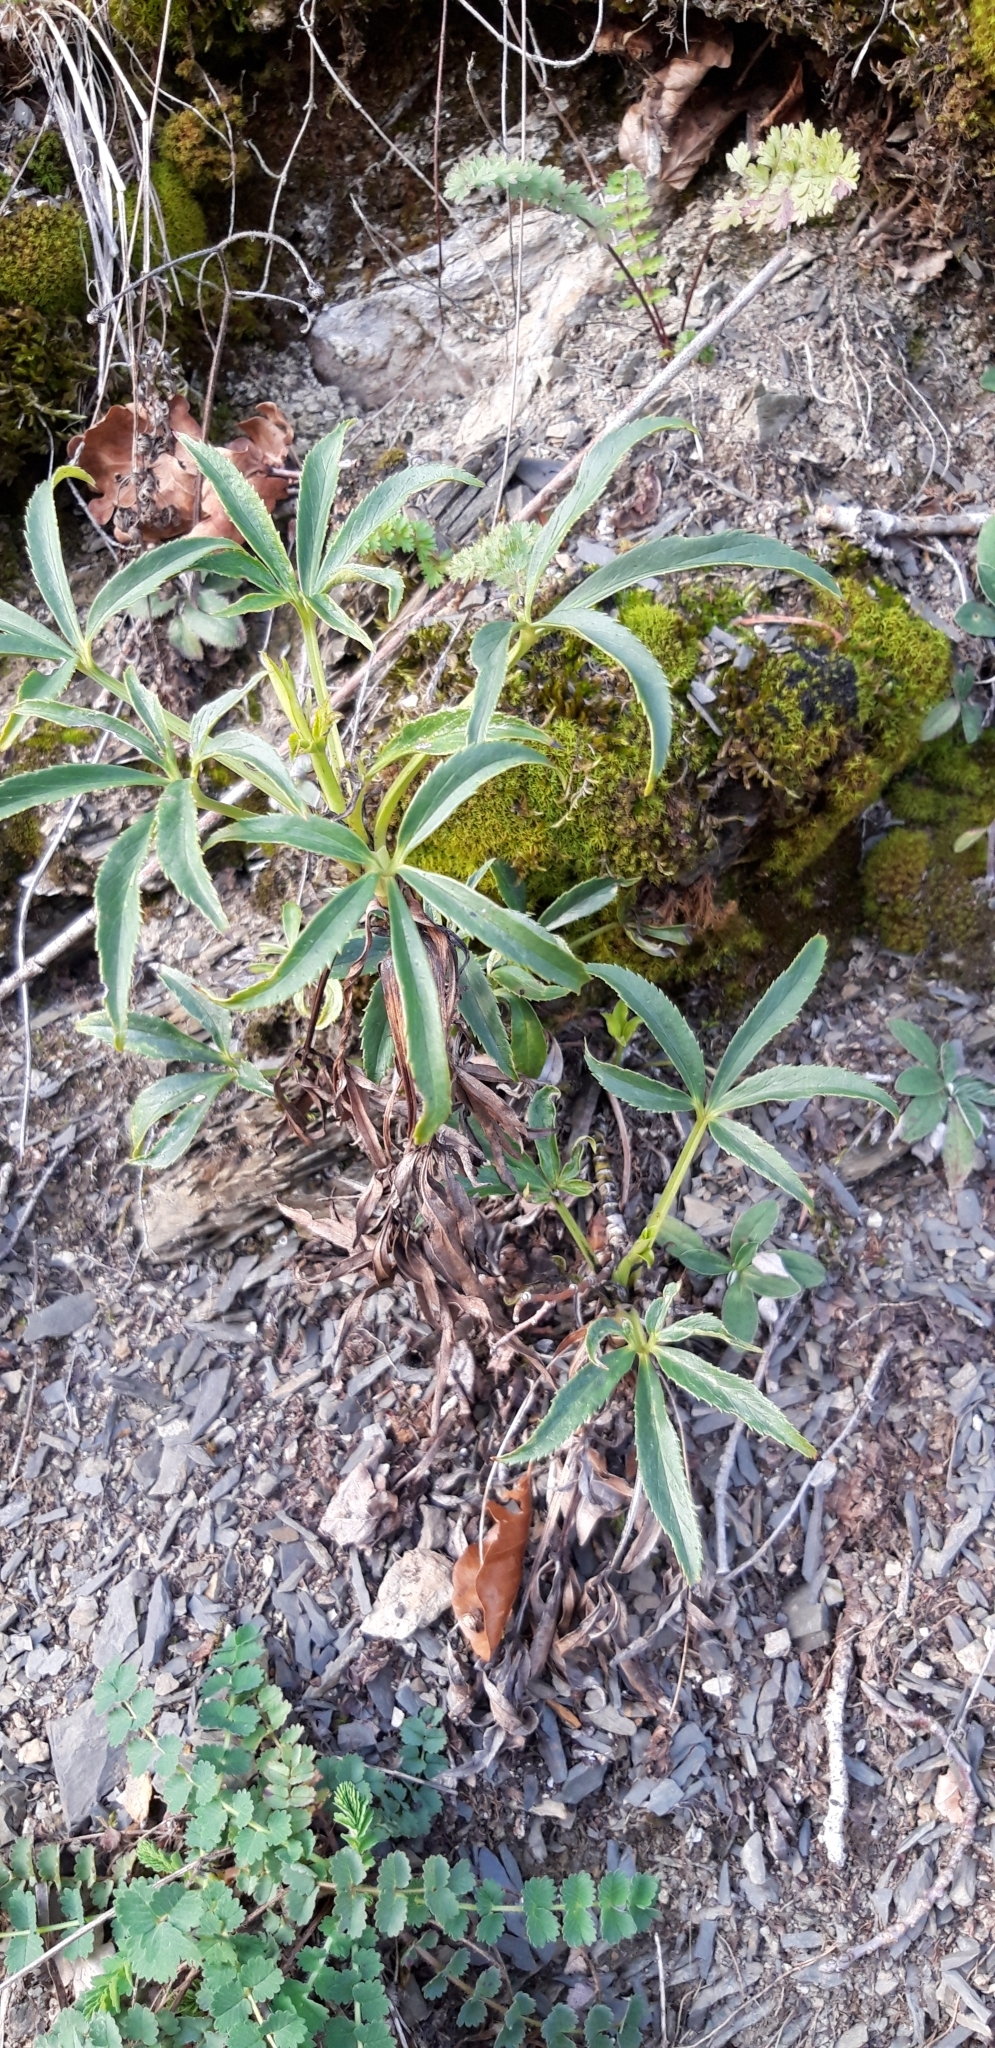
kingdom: Plantae
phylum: Tracheophyta
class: Magnoliopsida
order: Ranunculales
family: Ranunculaceae
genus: Helleborus
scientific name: Helleborus foetidus
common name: Stinking hellebore
